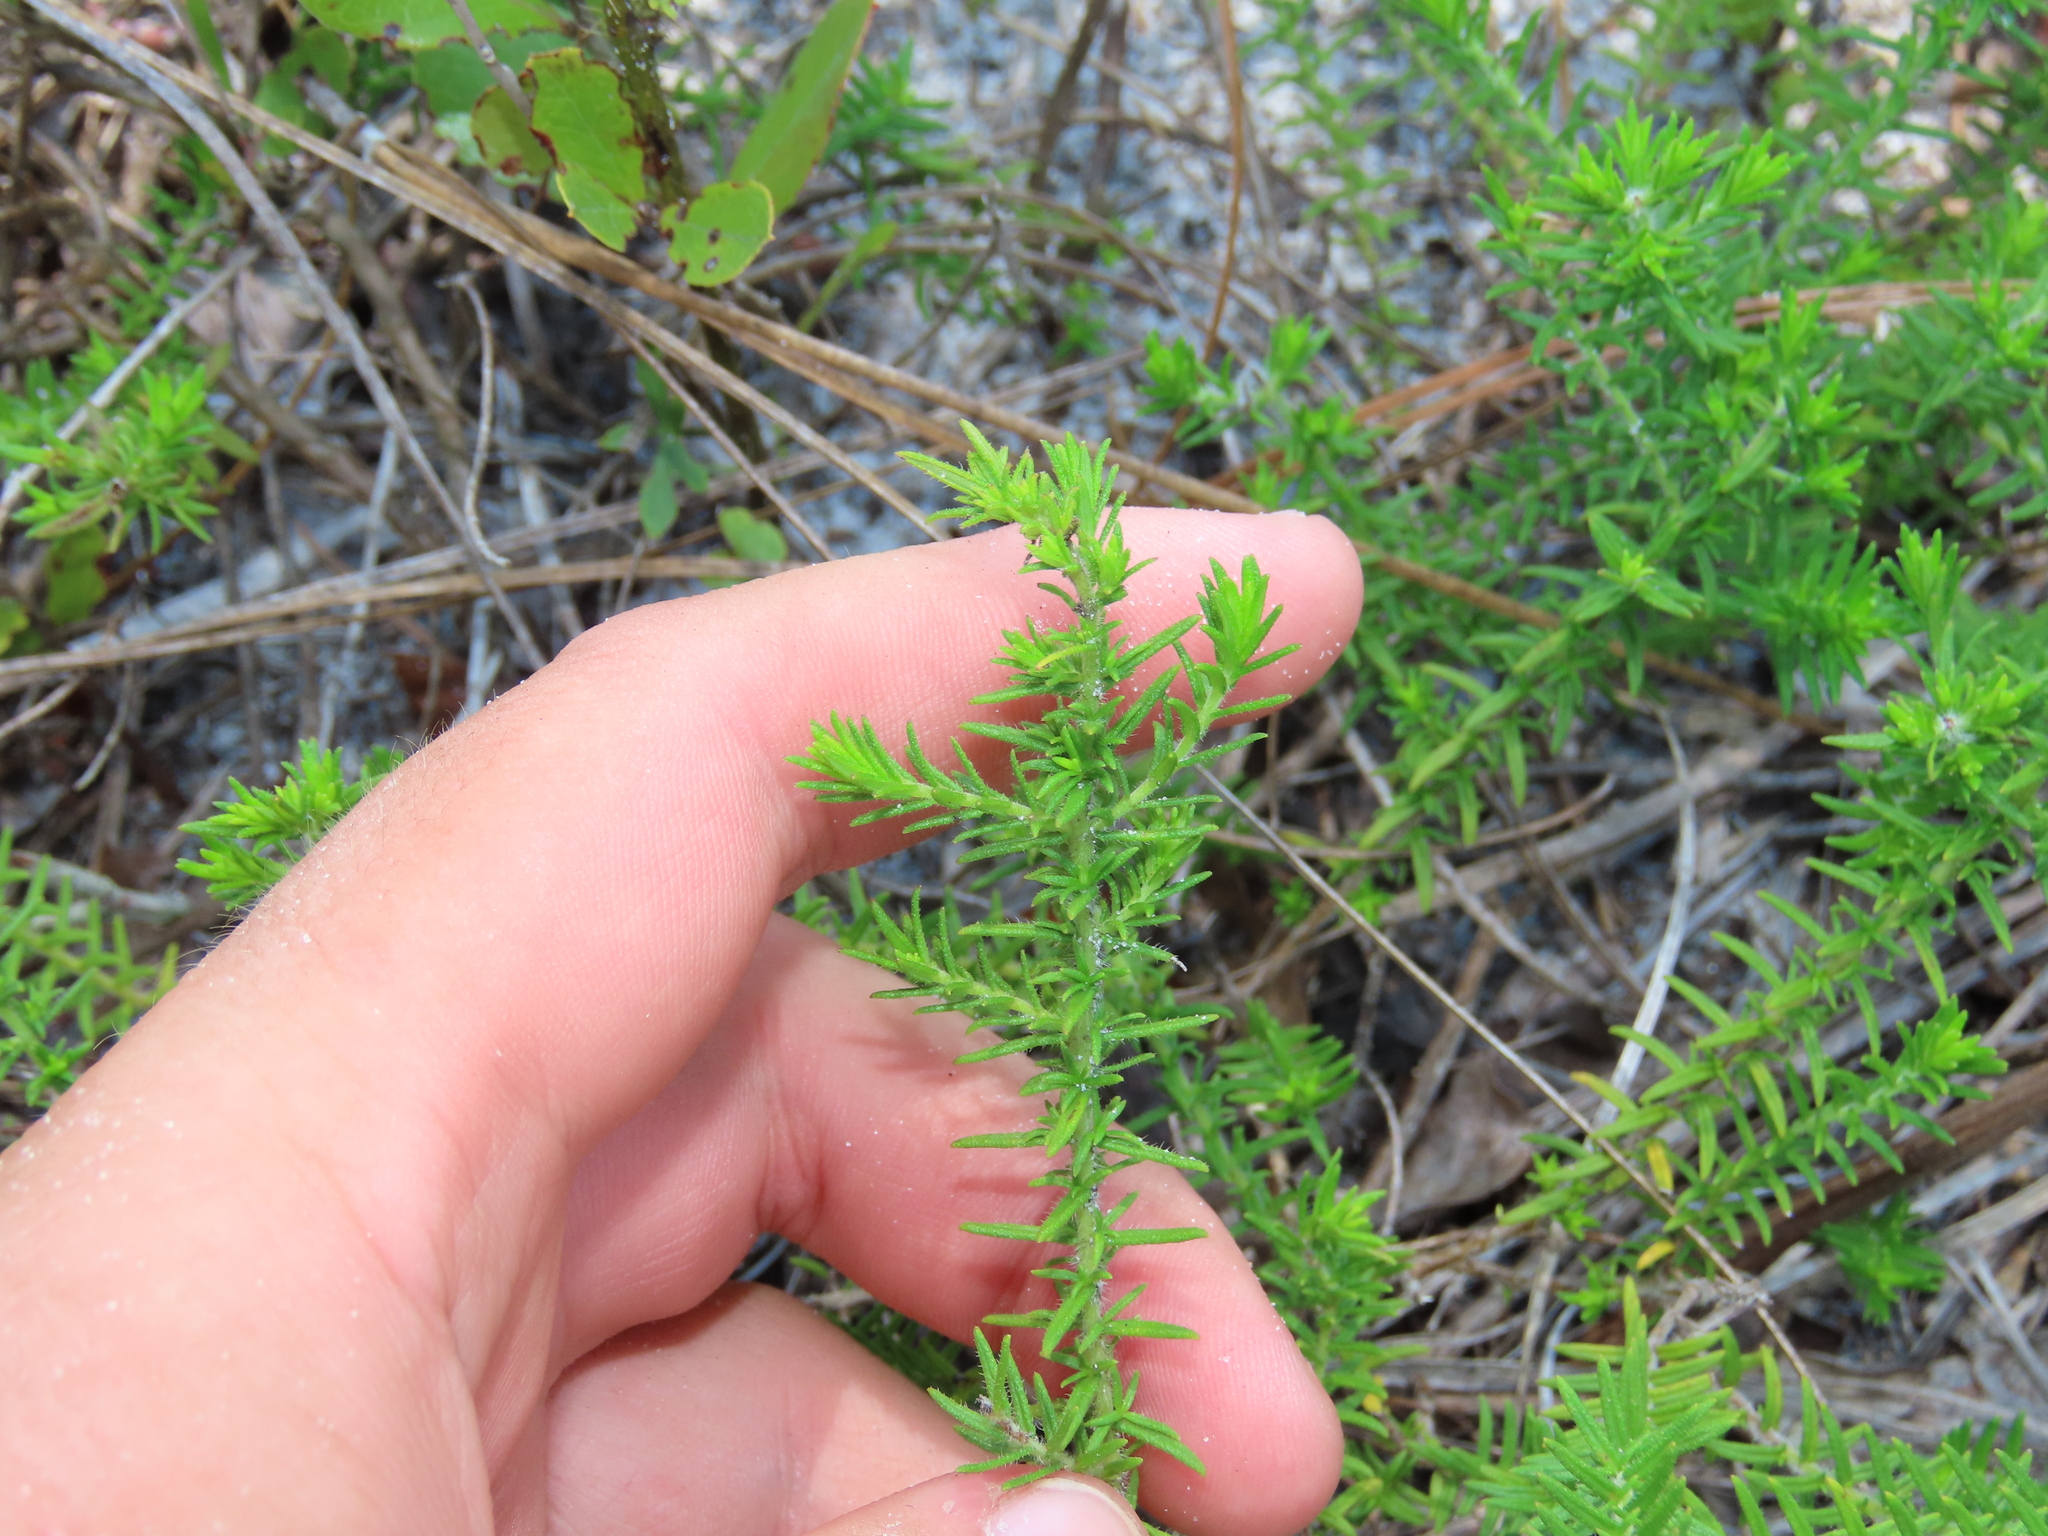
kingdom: Plantae
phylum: Tracheophyta
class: Magnoliopsida
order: Lamiales
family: Lamiaceae
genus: Piloblephis
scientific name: Piloblephis rigida
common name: Wild pennyroyal
